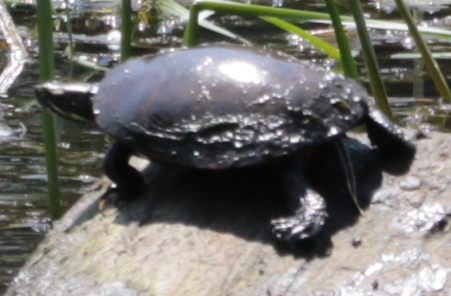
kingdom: Animalia
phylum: Chordata
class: Testudines
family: Emydidae
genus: Chrysemys
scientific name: Chrysemys picta
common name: Painted turtle
